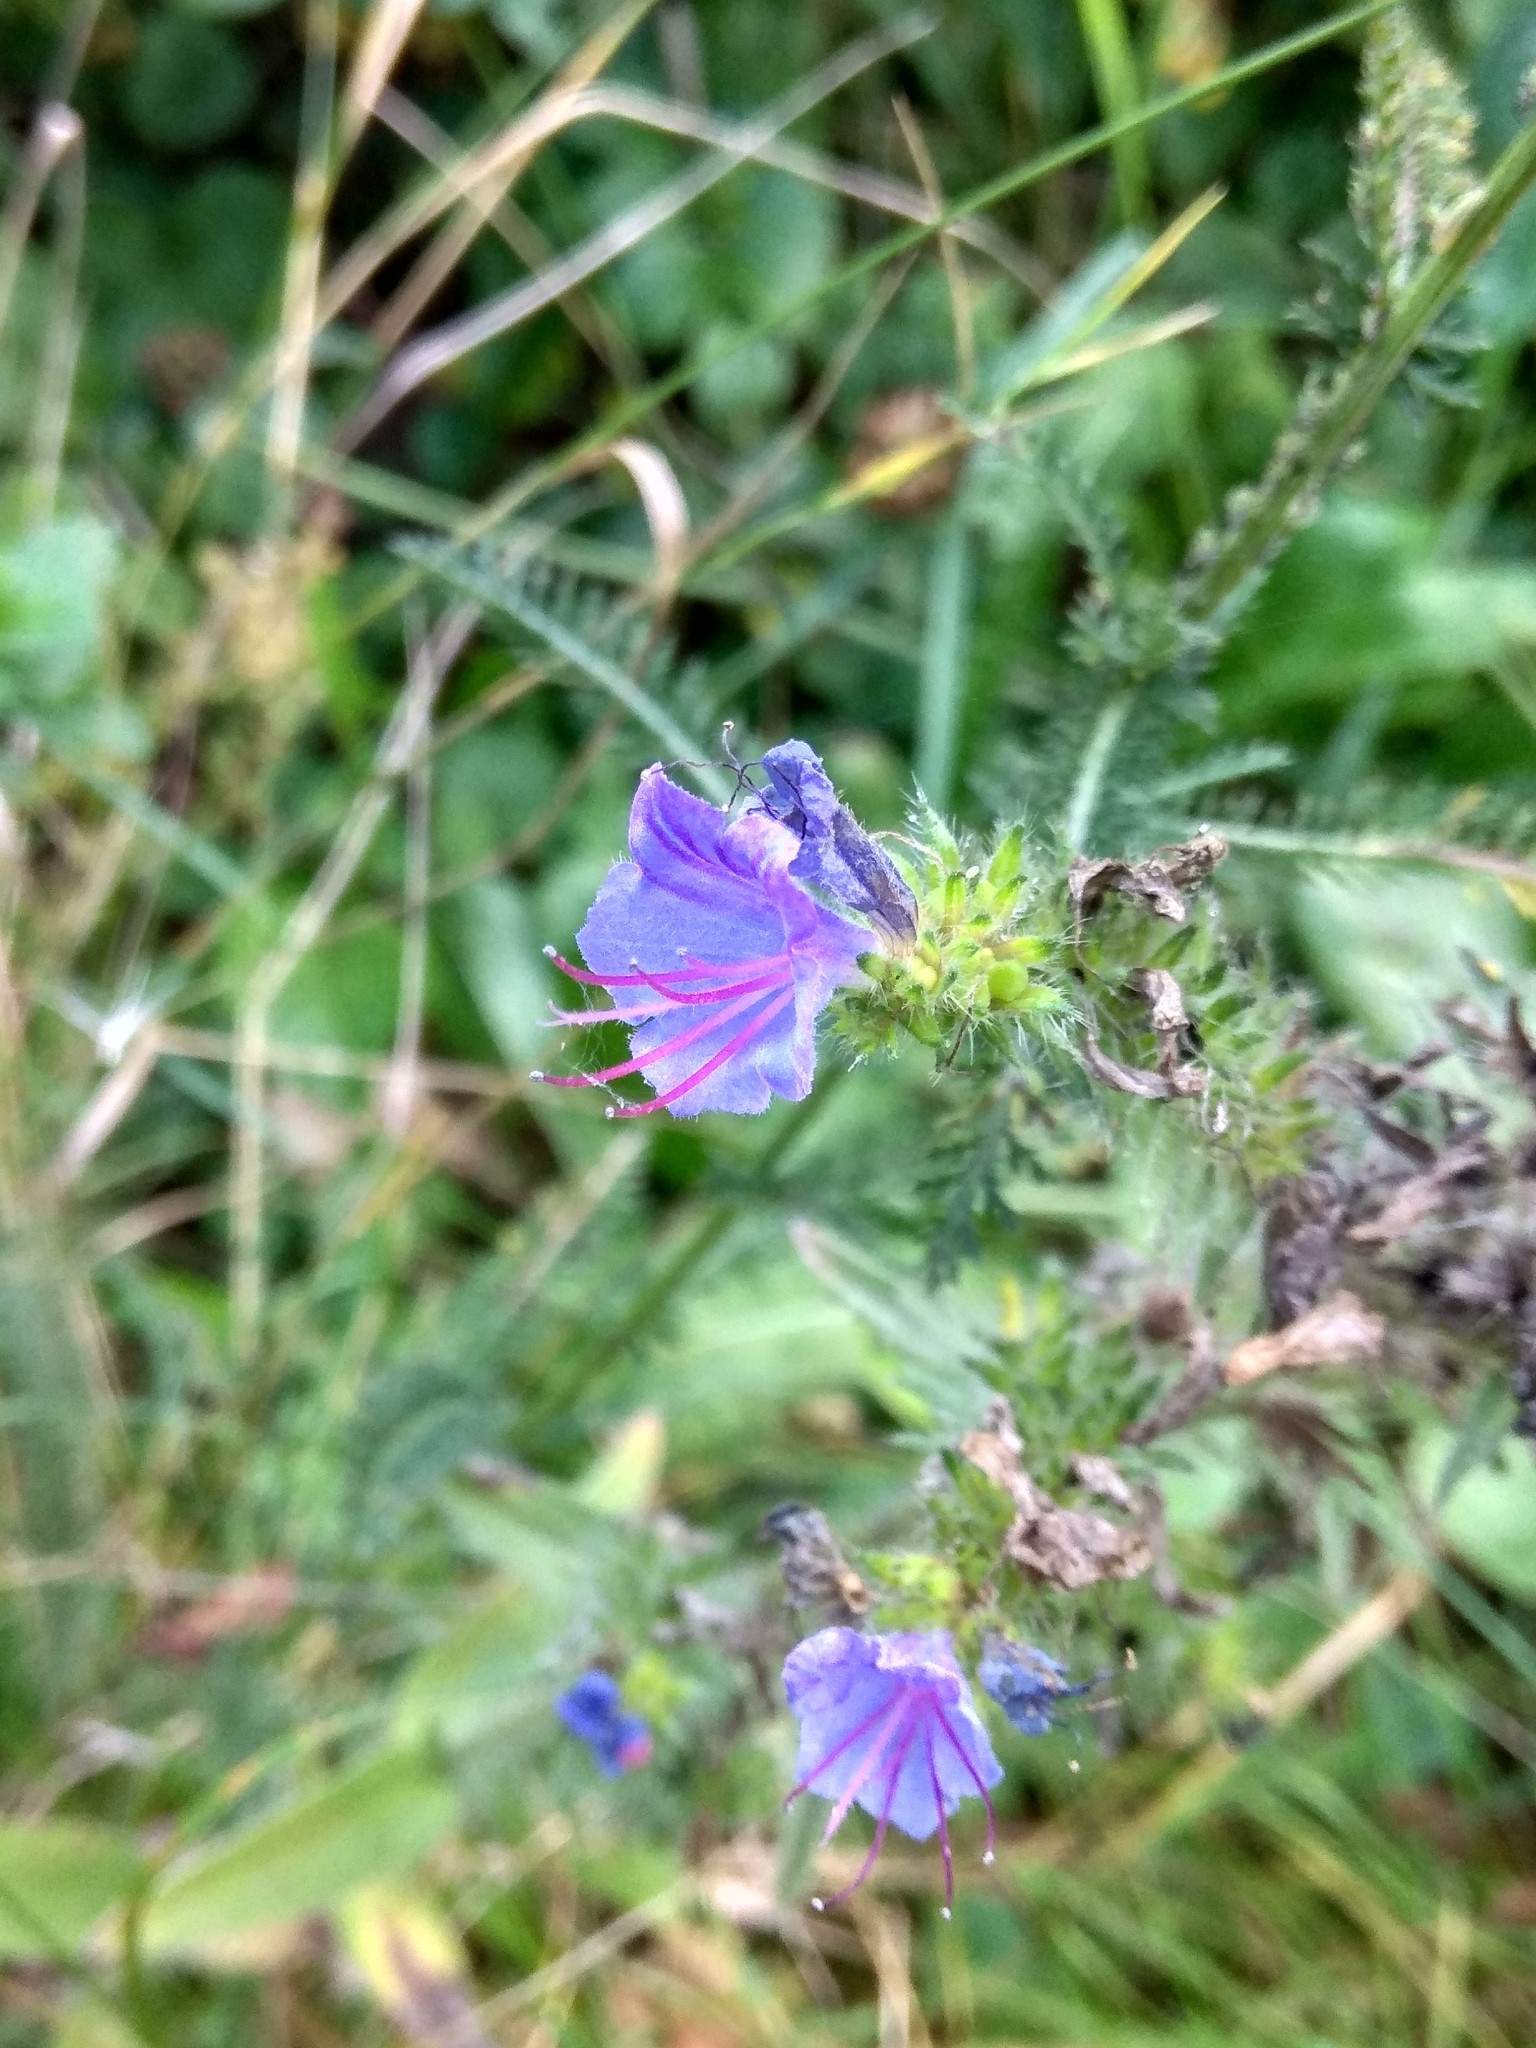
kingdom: Plantae
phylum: Tracheophyta
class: Magnoliopsida
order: Boraginales
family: Boraginaceae
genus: Echium
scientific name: Echium vulgare
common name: Common viper's bugloss
